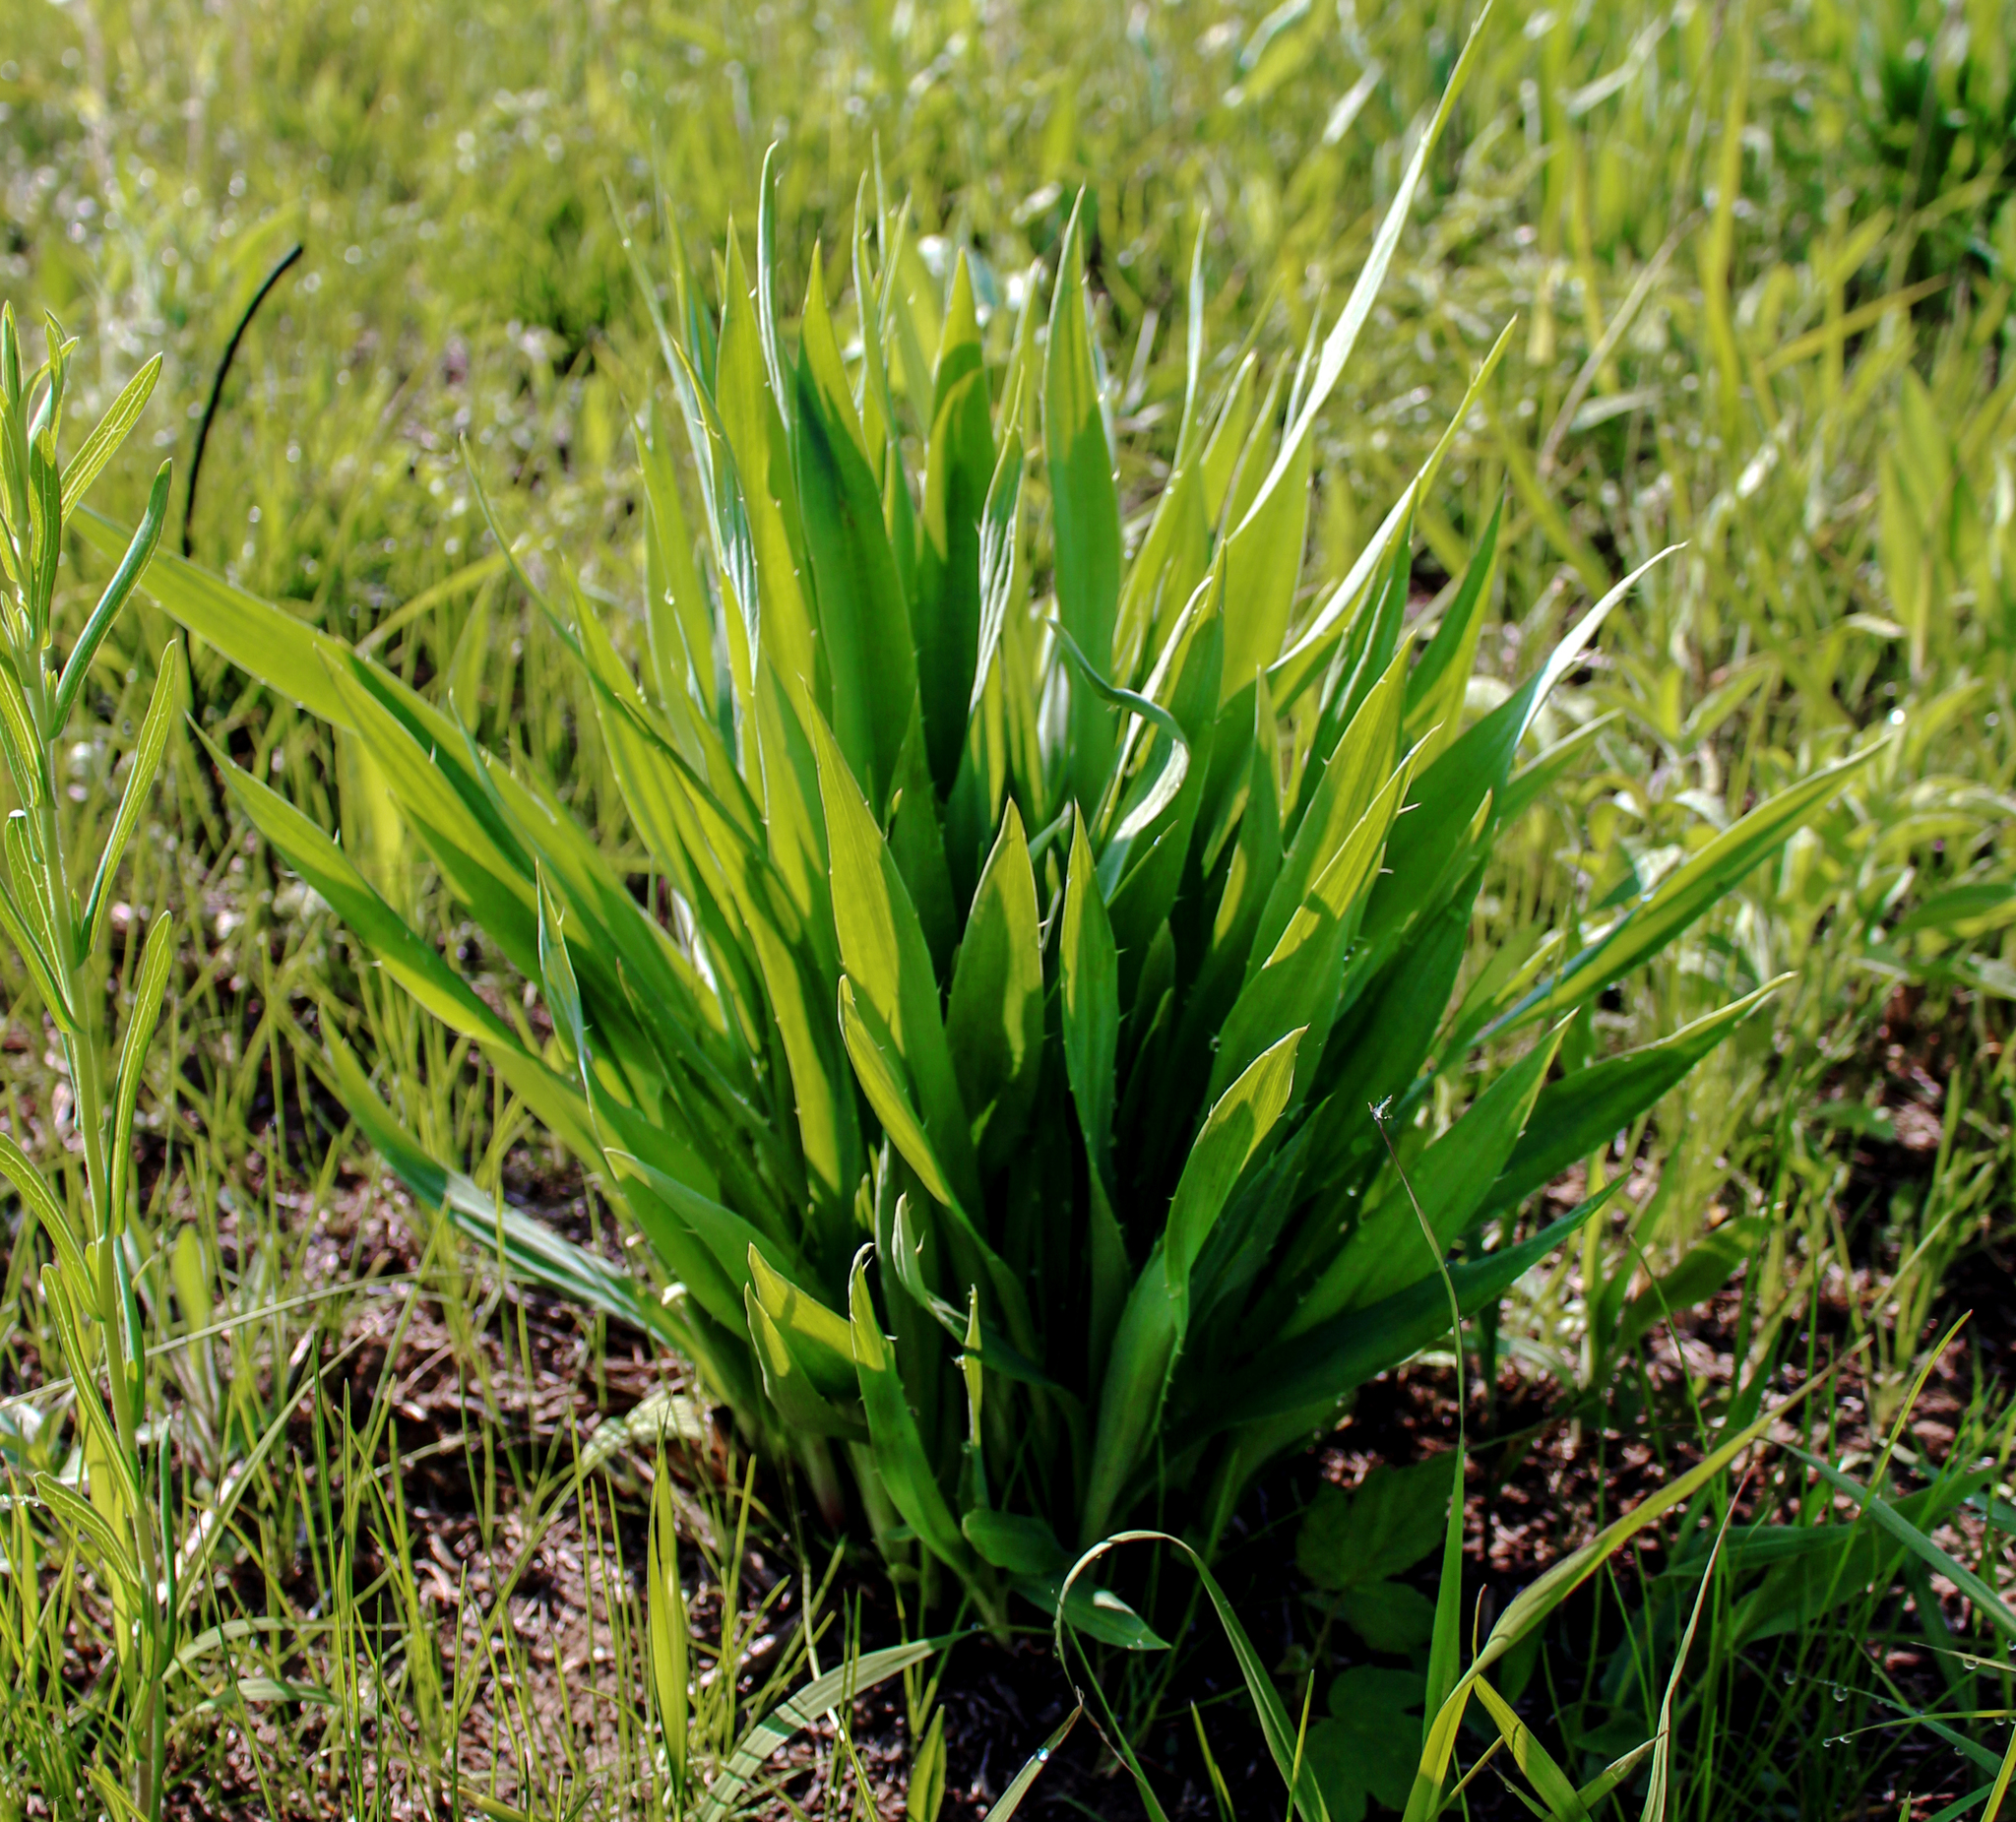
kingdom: Plantae
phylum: Tracheophyta
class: Magnoliopsida
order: Apiales
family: Apiaceae
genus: Eryngium
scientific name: Eryngium yuccifolium
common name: Button eryngo
